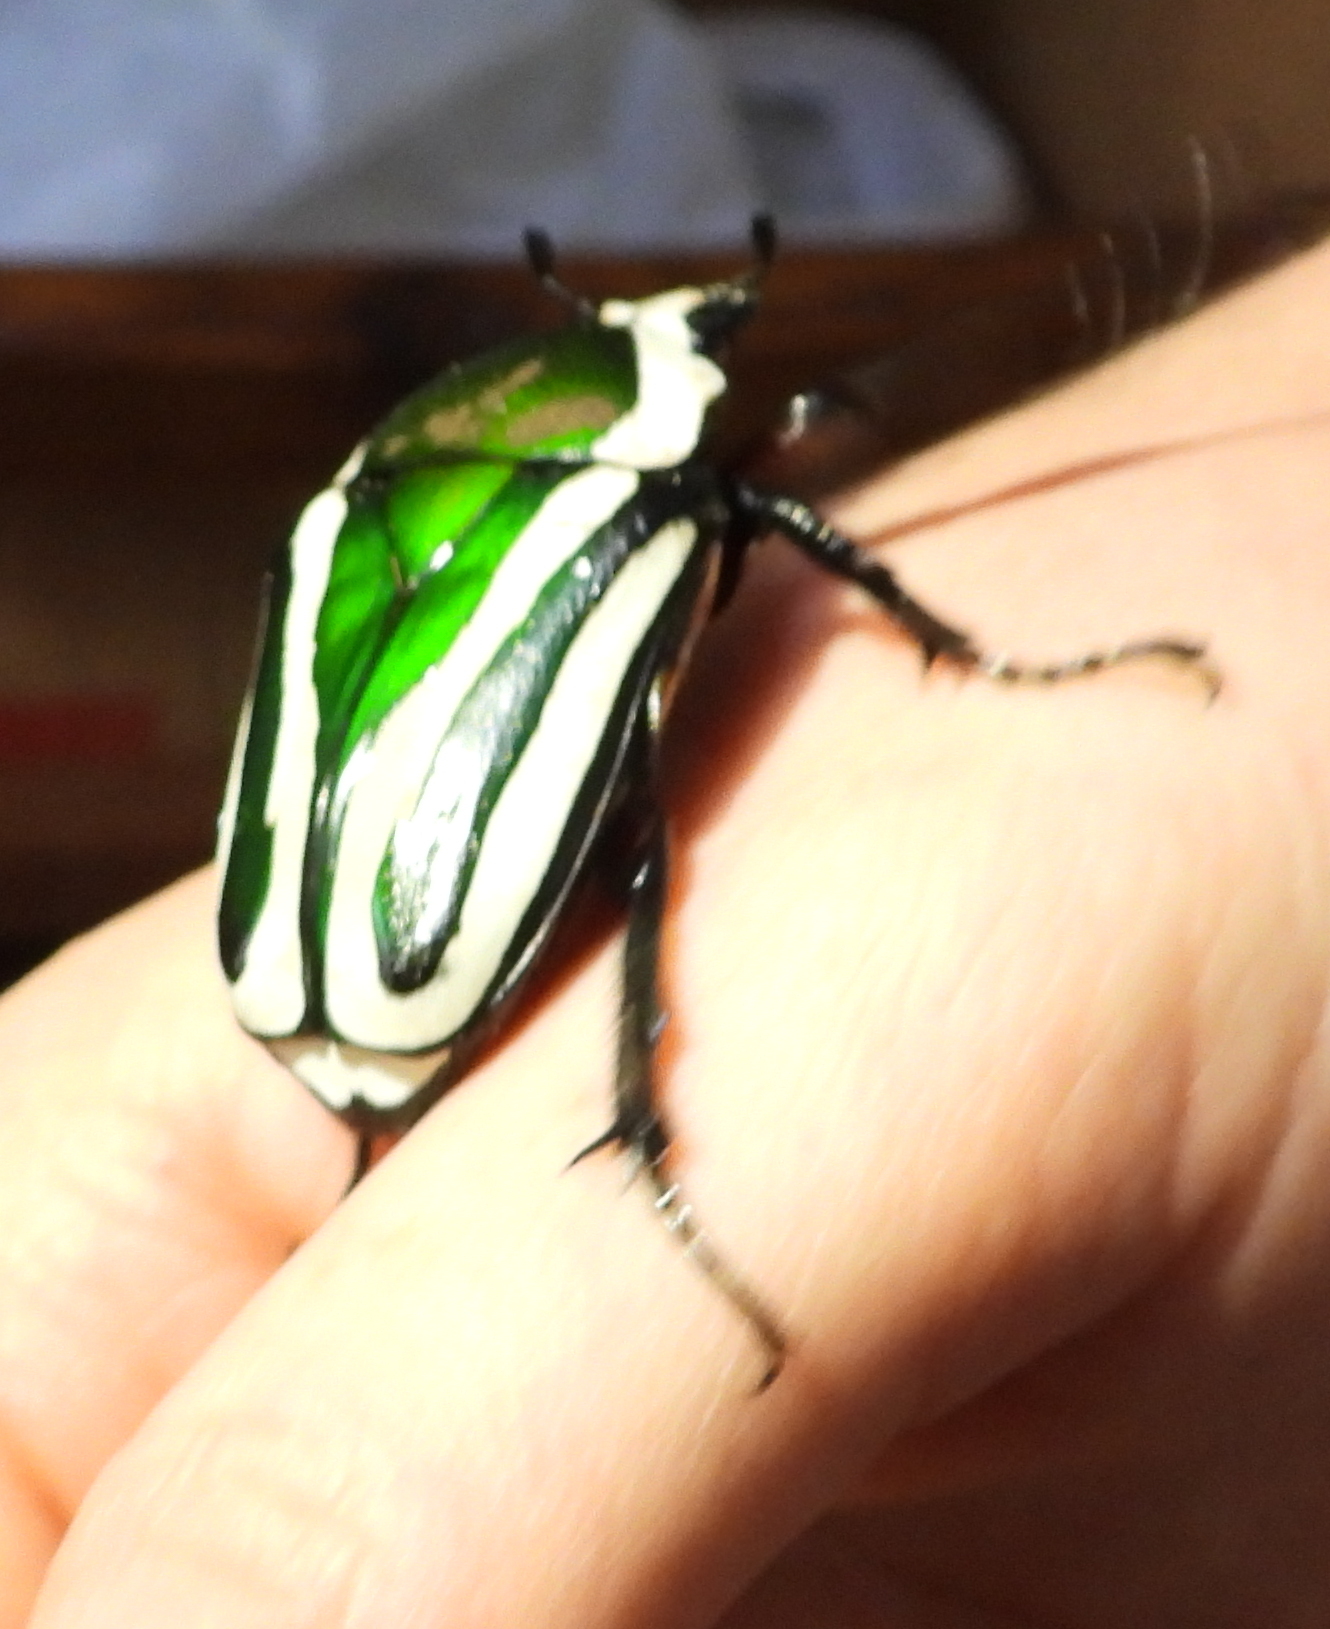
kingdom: Animalia
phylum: Arthropoda
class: Insecta
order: Coleoptera
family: Scarabaeidae
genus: Dicronorhina
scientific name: Dicronorhina derbyana
